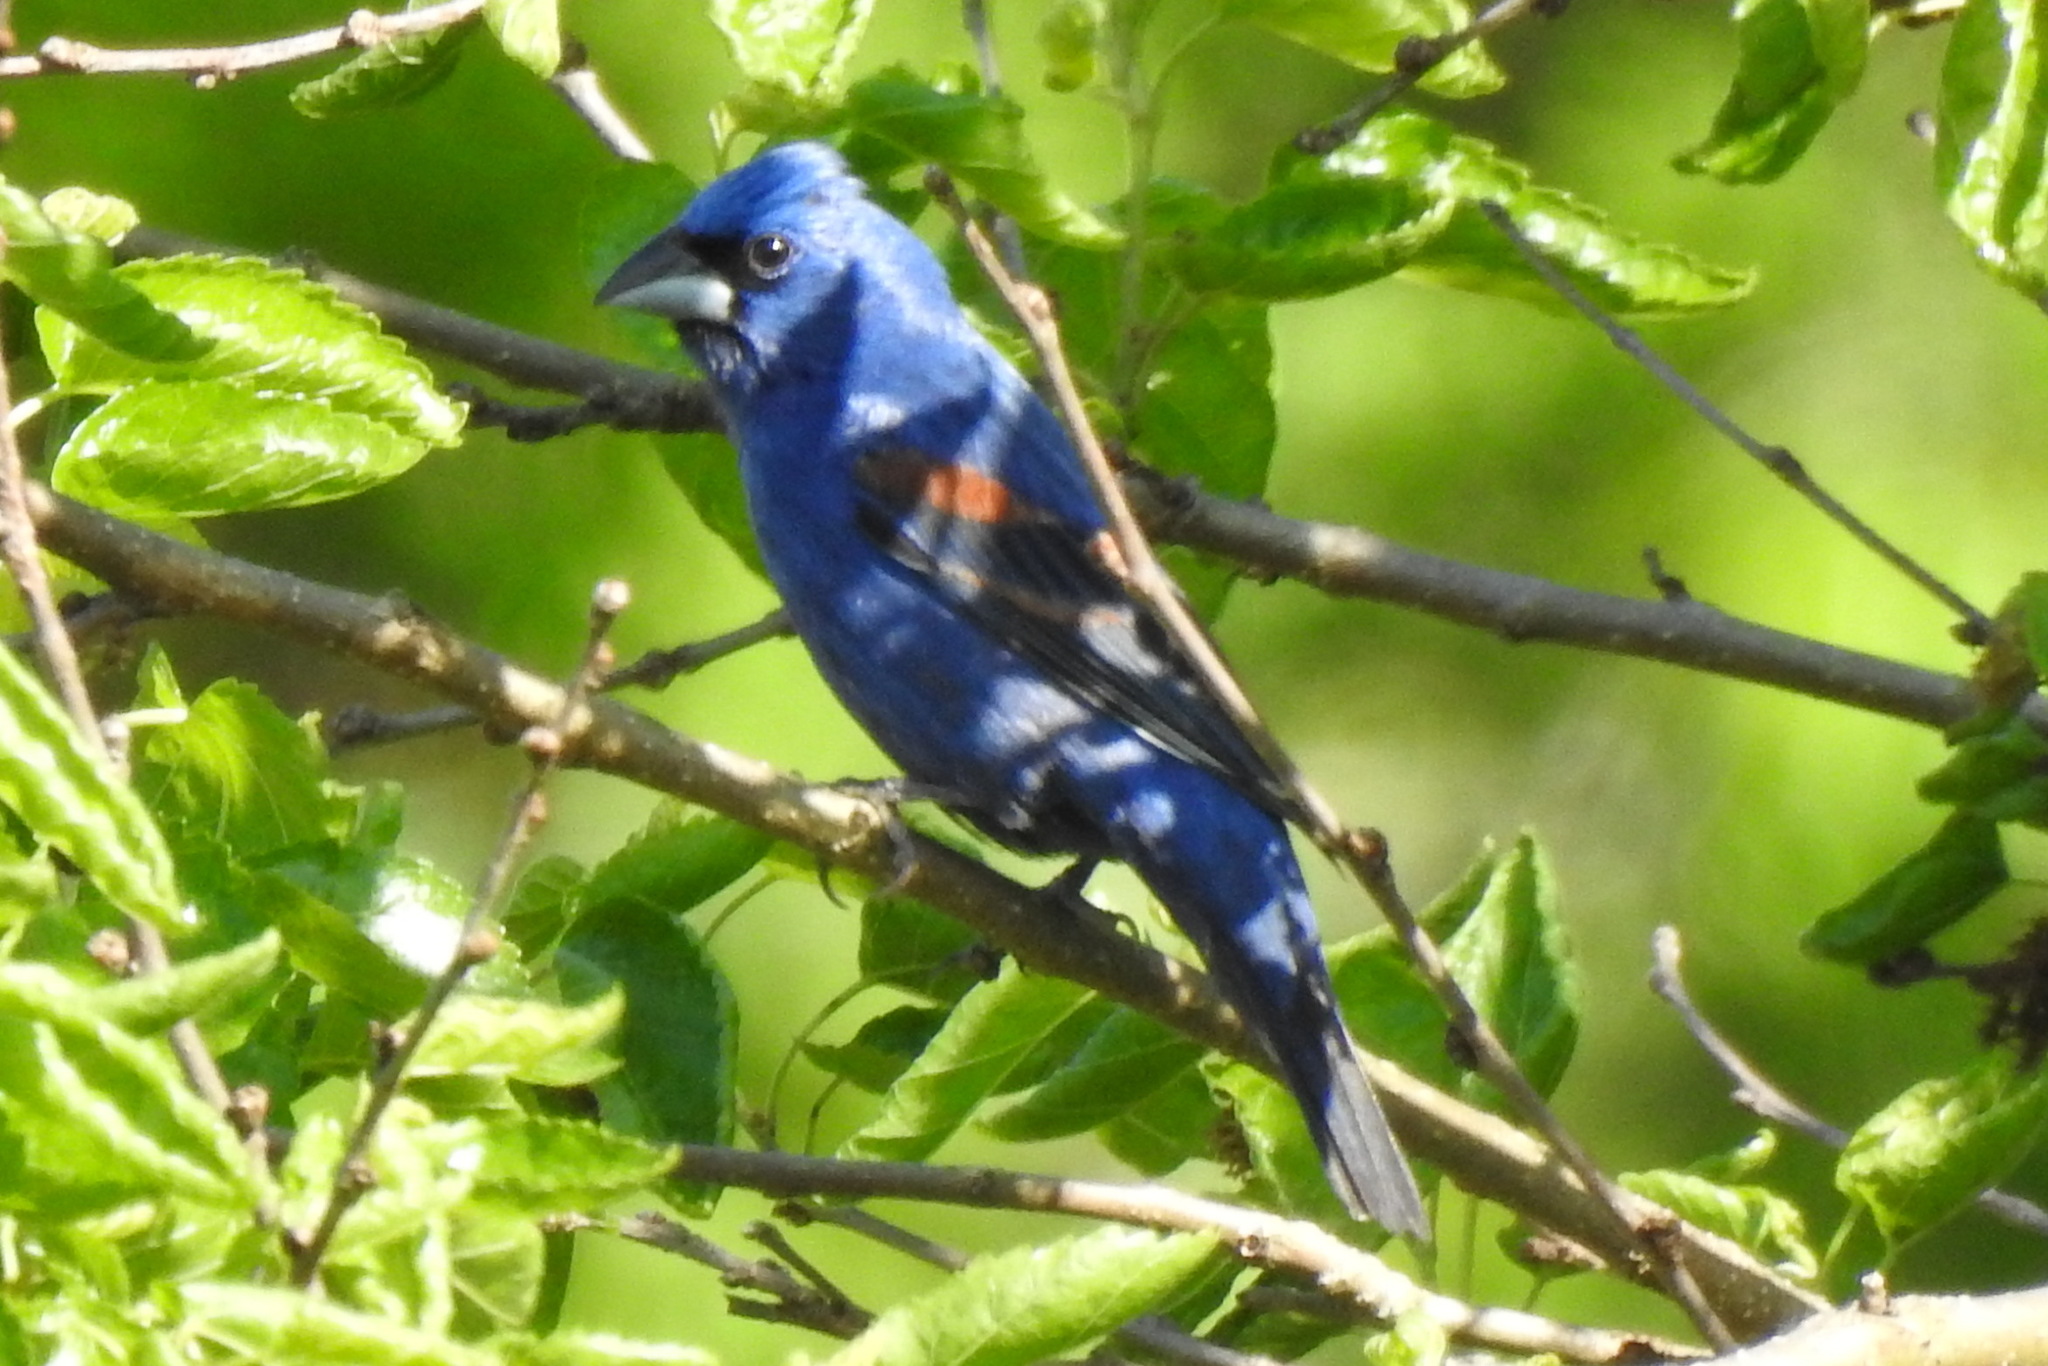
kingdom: Animalia
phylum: Chordata
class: Aves
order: Passeriformes
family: Cardinalidae
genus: Passerina
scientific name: Passerina caerulea
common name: Blue grosbeak
